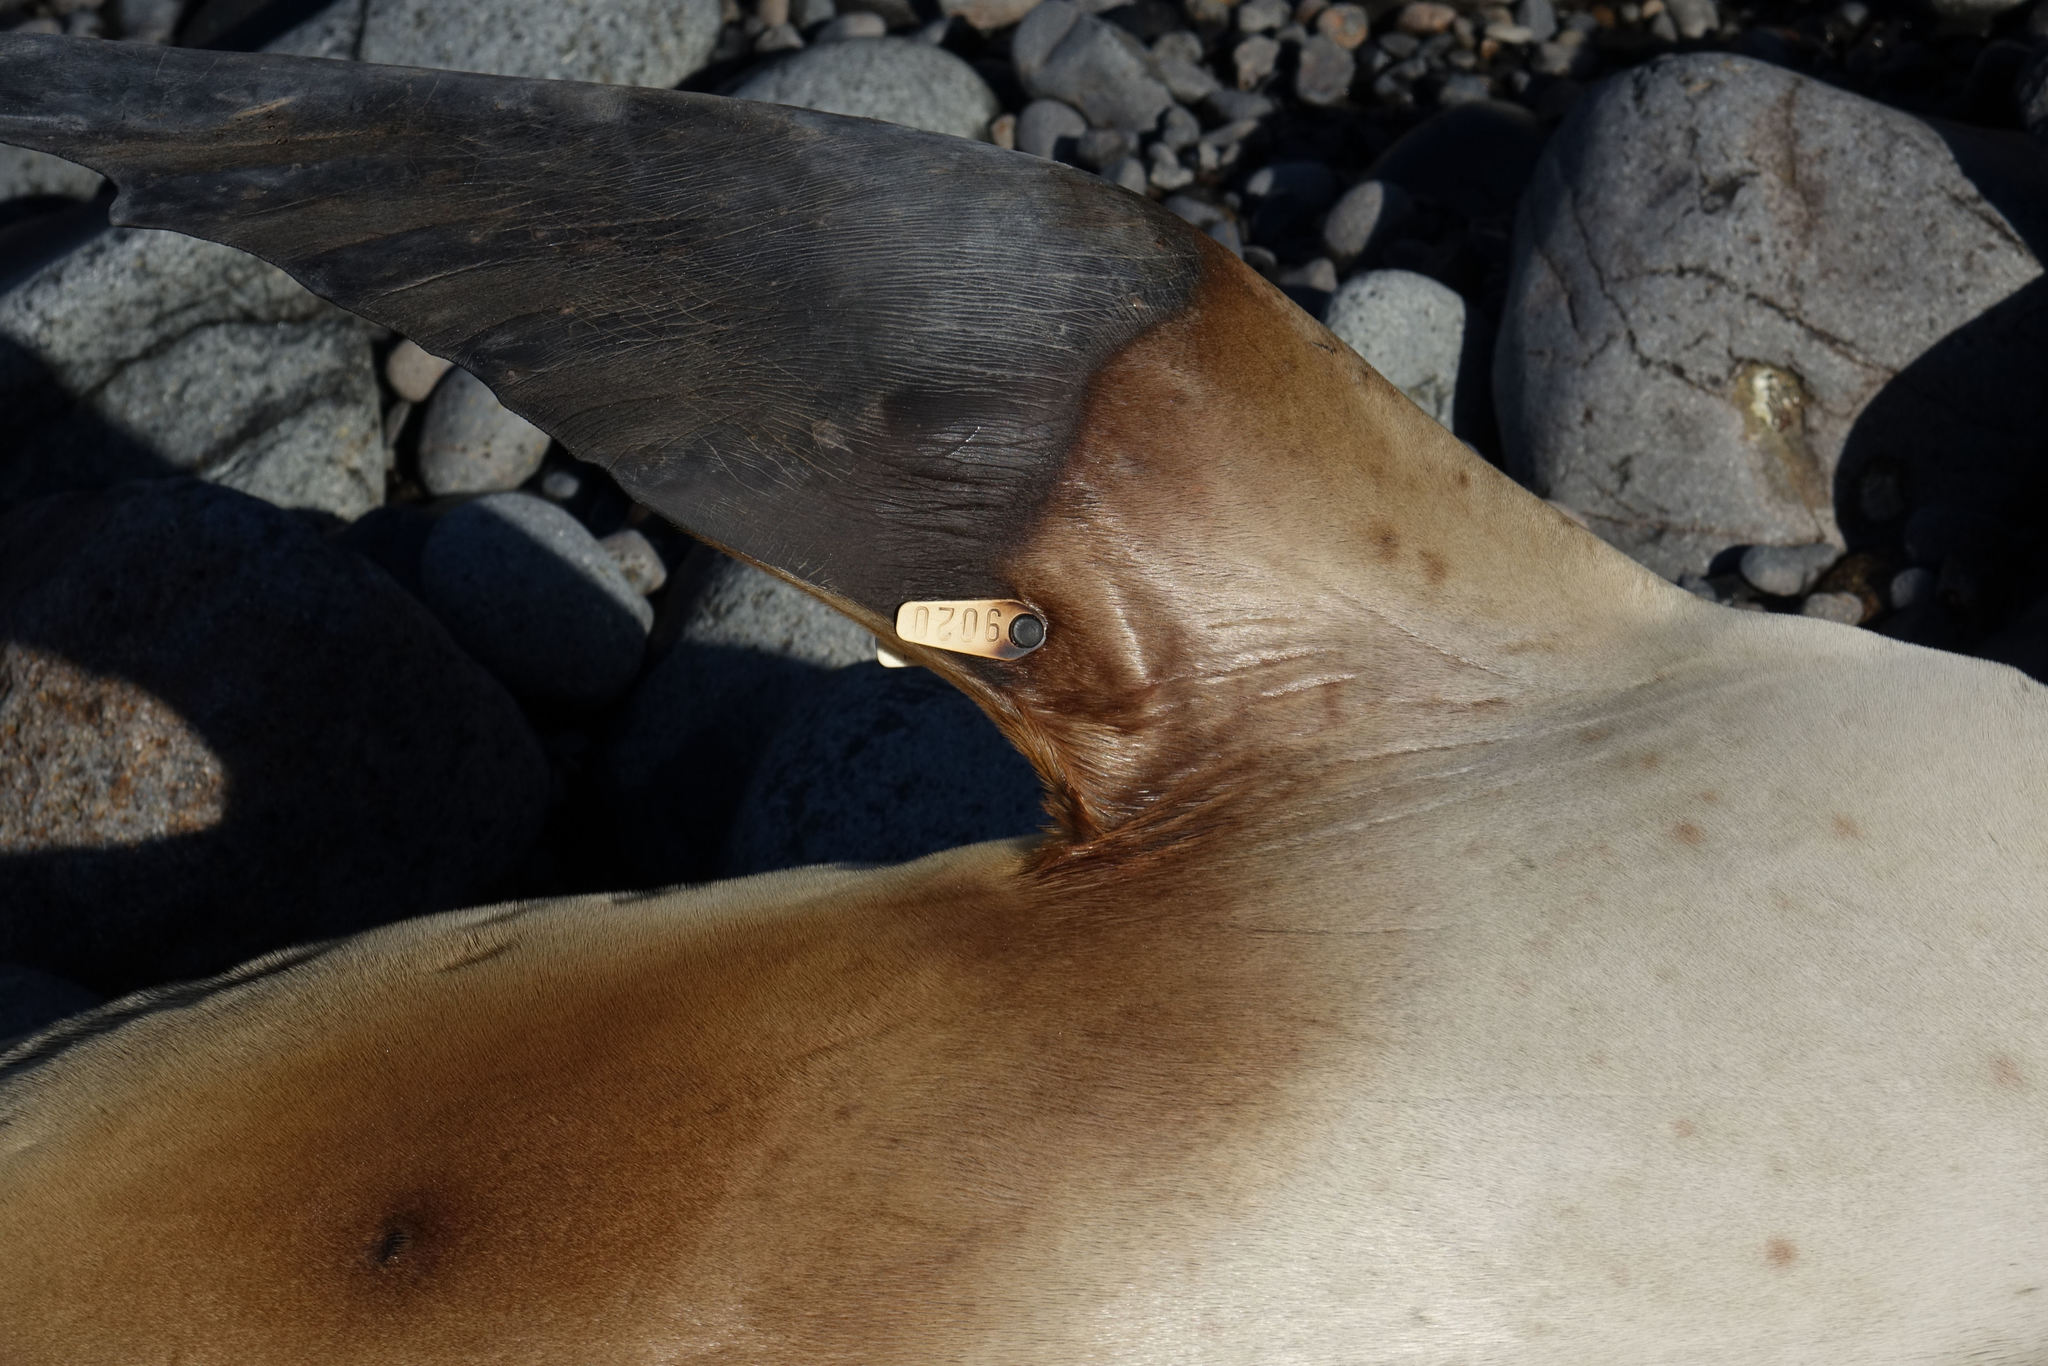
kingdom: Animalia
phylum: Chordata
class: Mammalia
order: Carnivora
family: Otariidae
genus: Phocarctos
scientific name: Phocarctos hookeri
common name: New zealand sea lion
